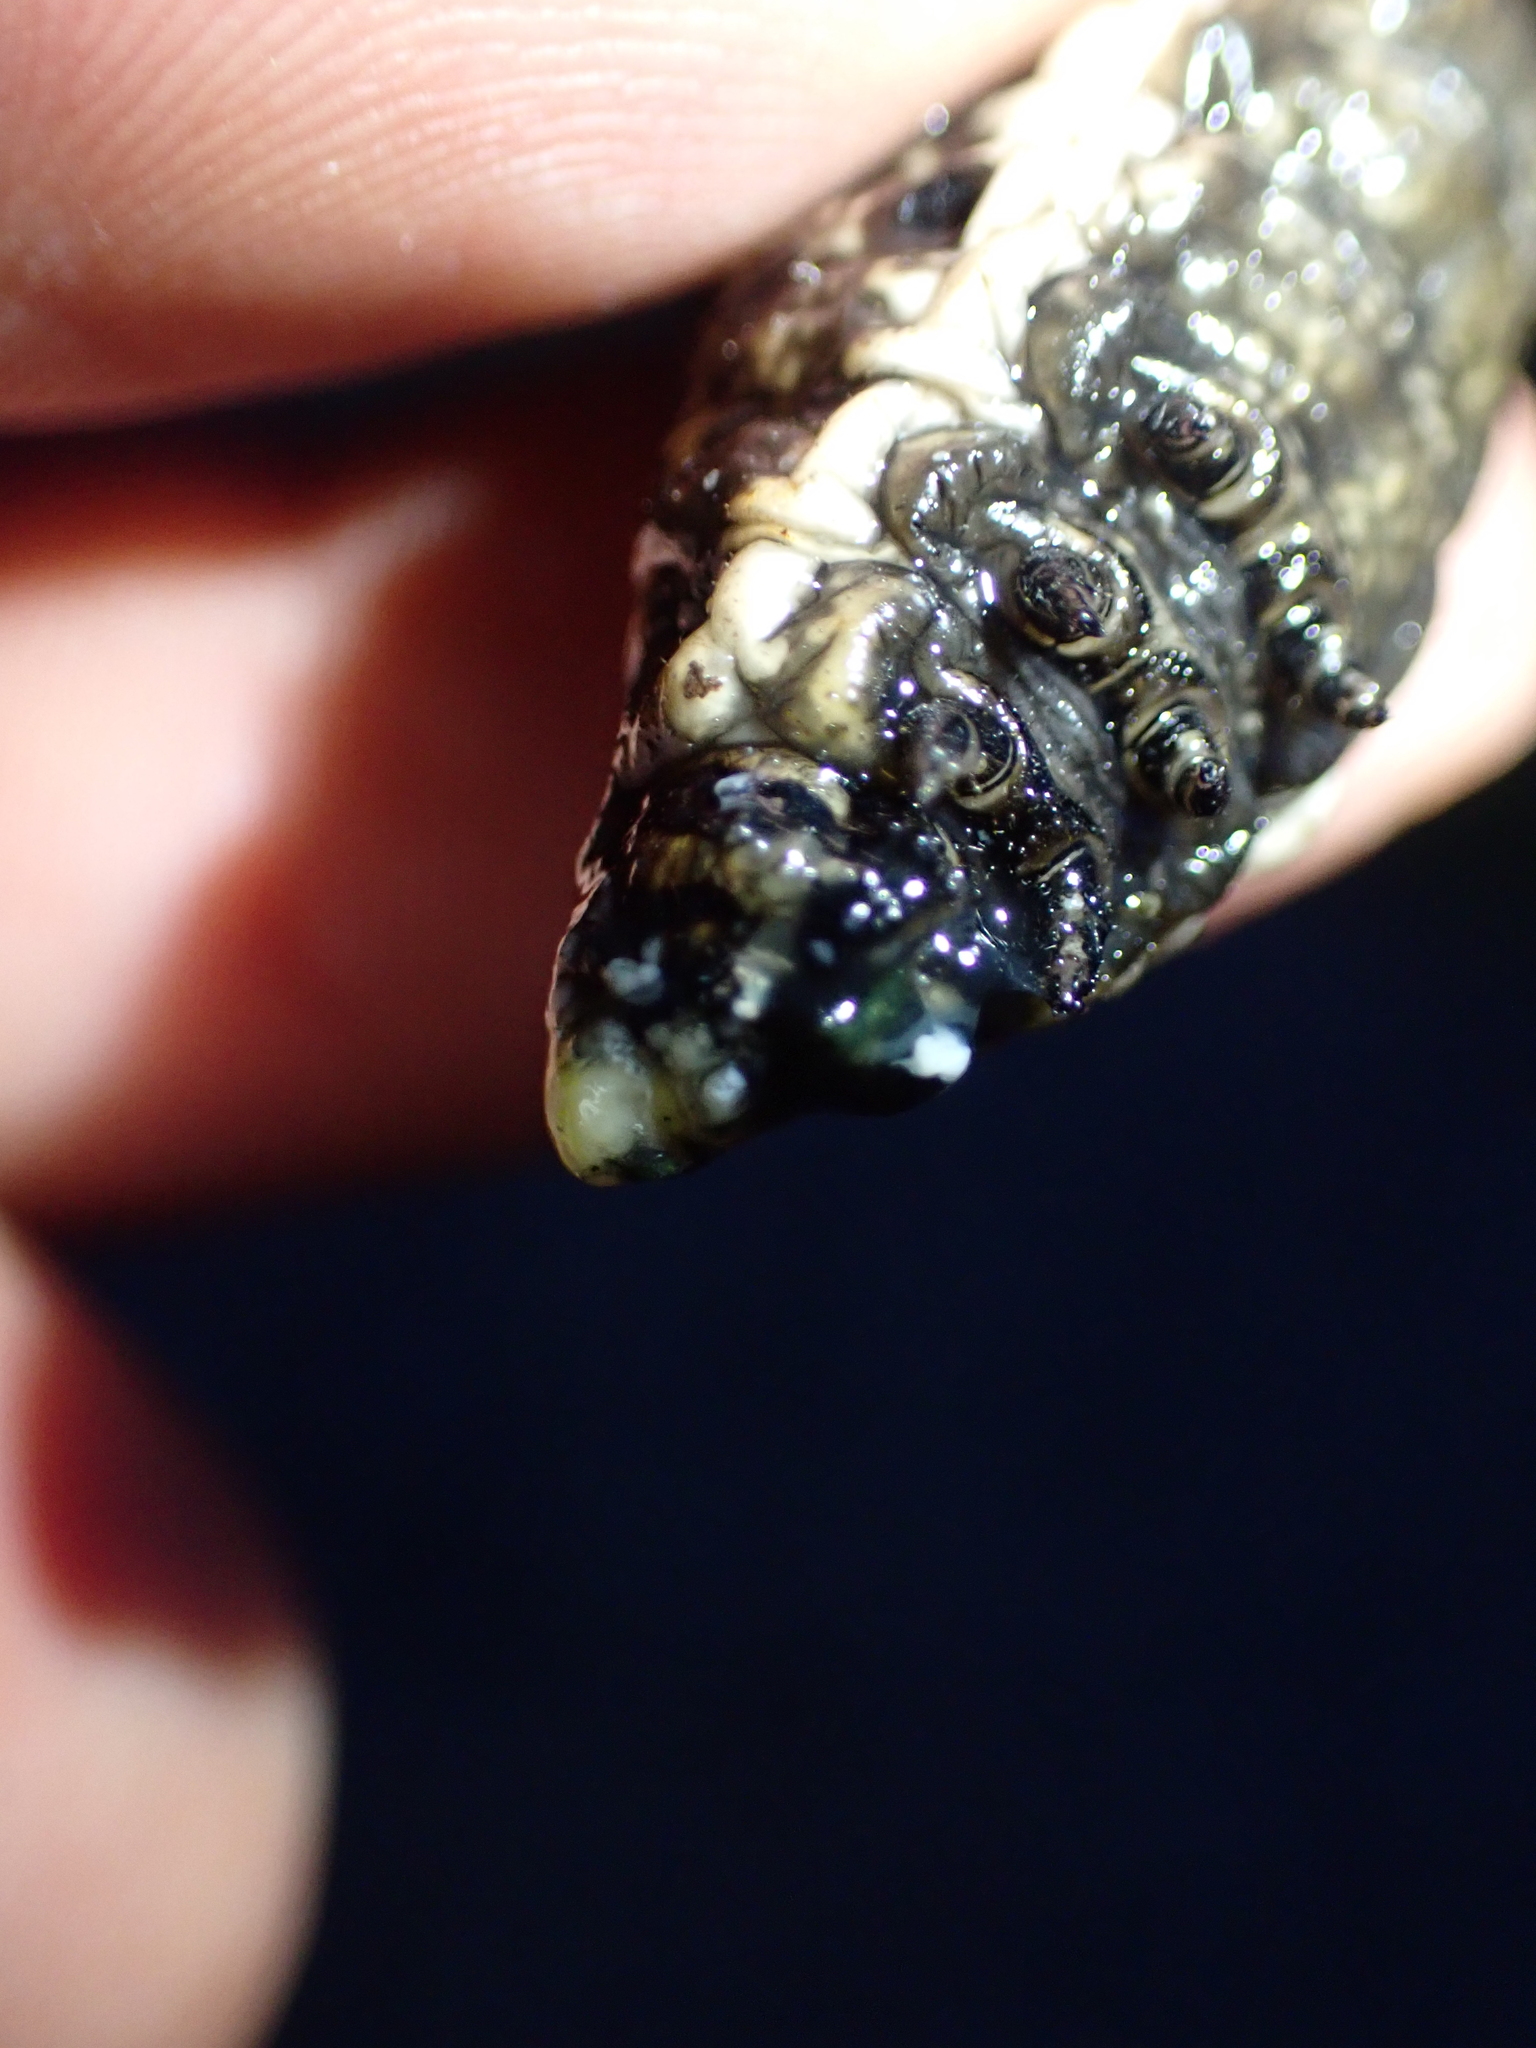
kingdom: Animalia
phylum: Arthropoda
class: Insecta
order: Lepidoptera
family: Sphingidae
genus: Agrius
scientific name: Agrius convolvuli
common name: Convolvulus hawkmoth
